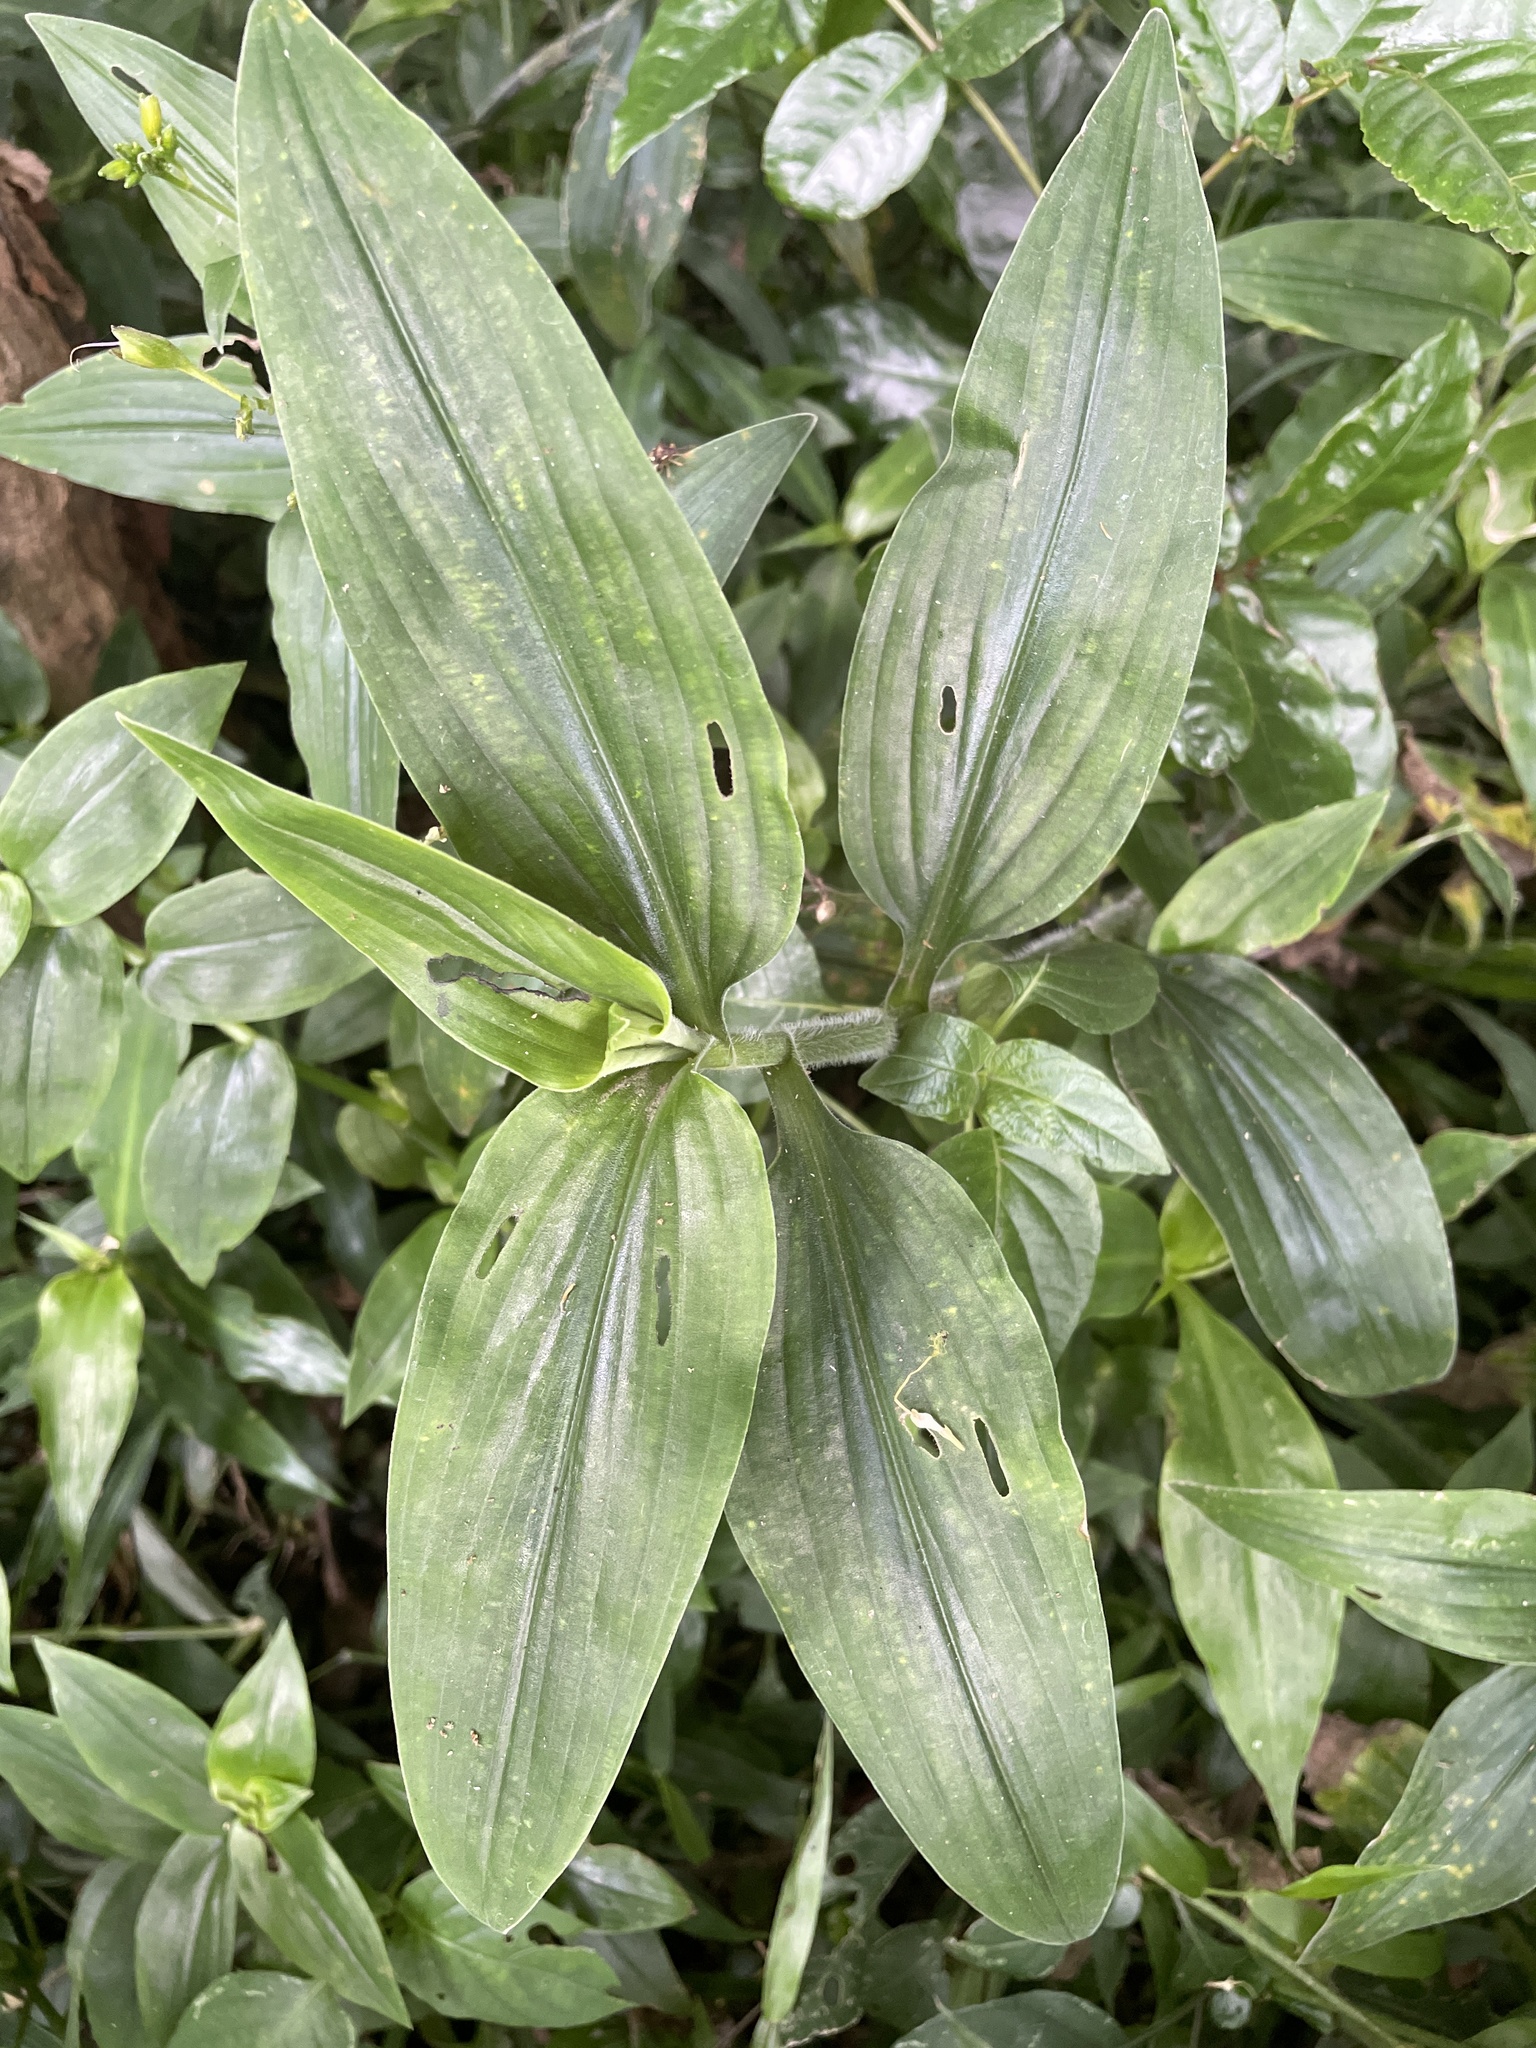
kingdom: Plantae
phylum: Tracheophyta
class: Liliopsida
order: Commelinales
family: Commelinaceae
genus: Aneilema
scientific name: Aneilema aequinoctiale
